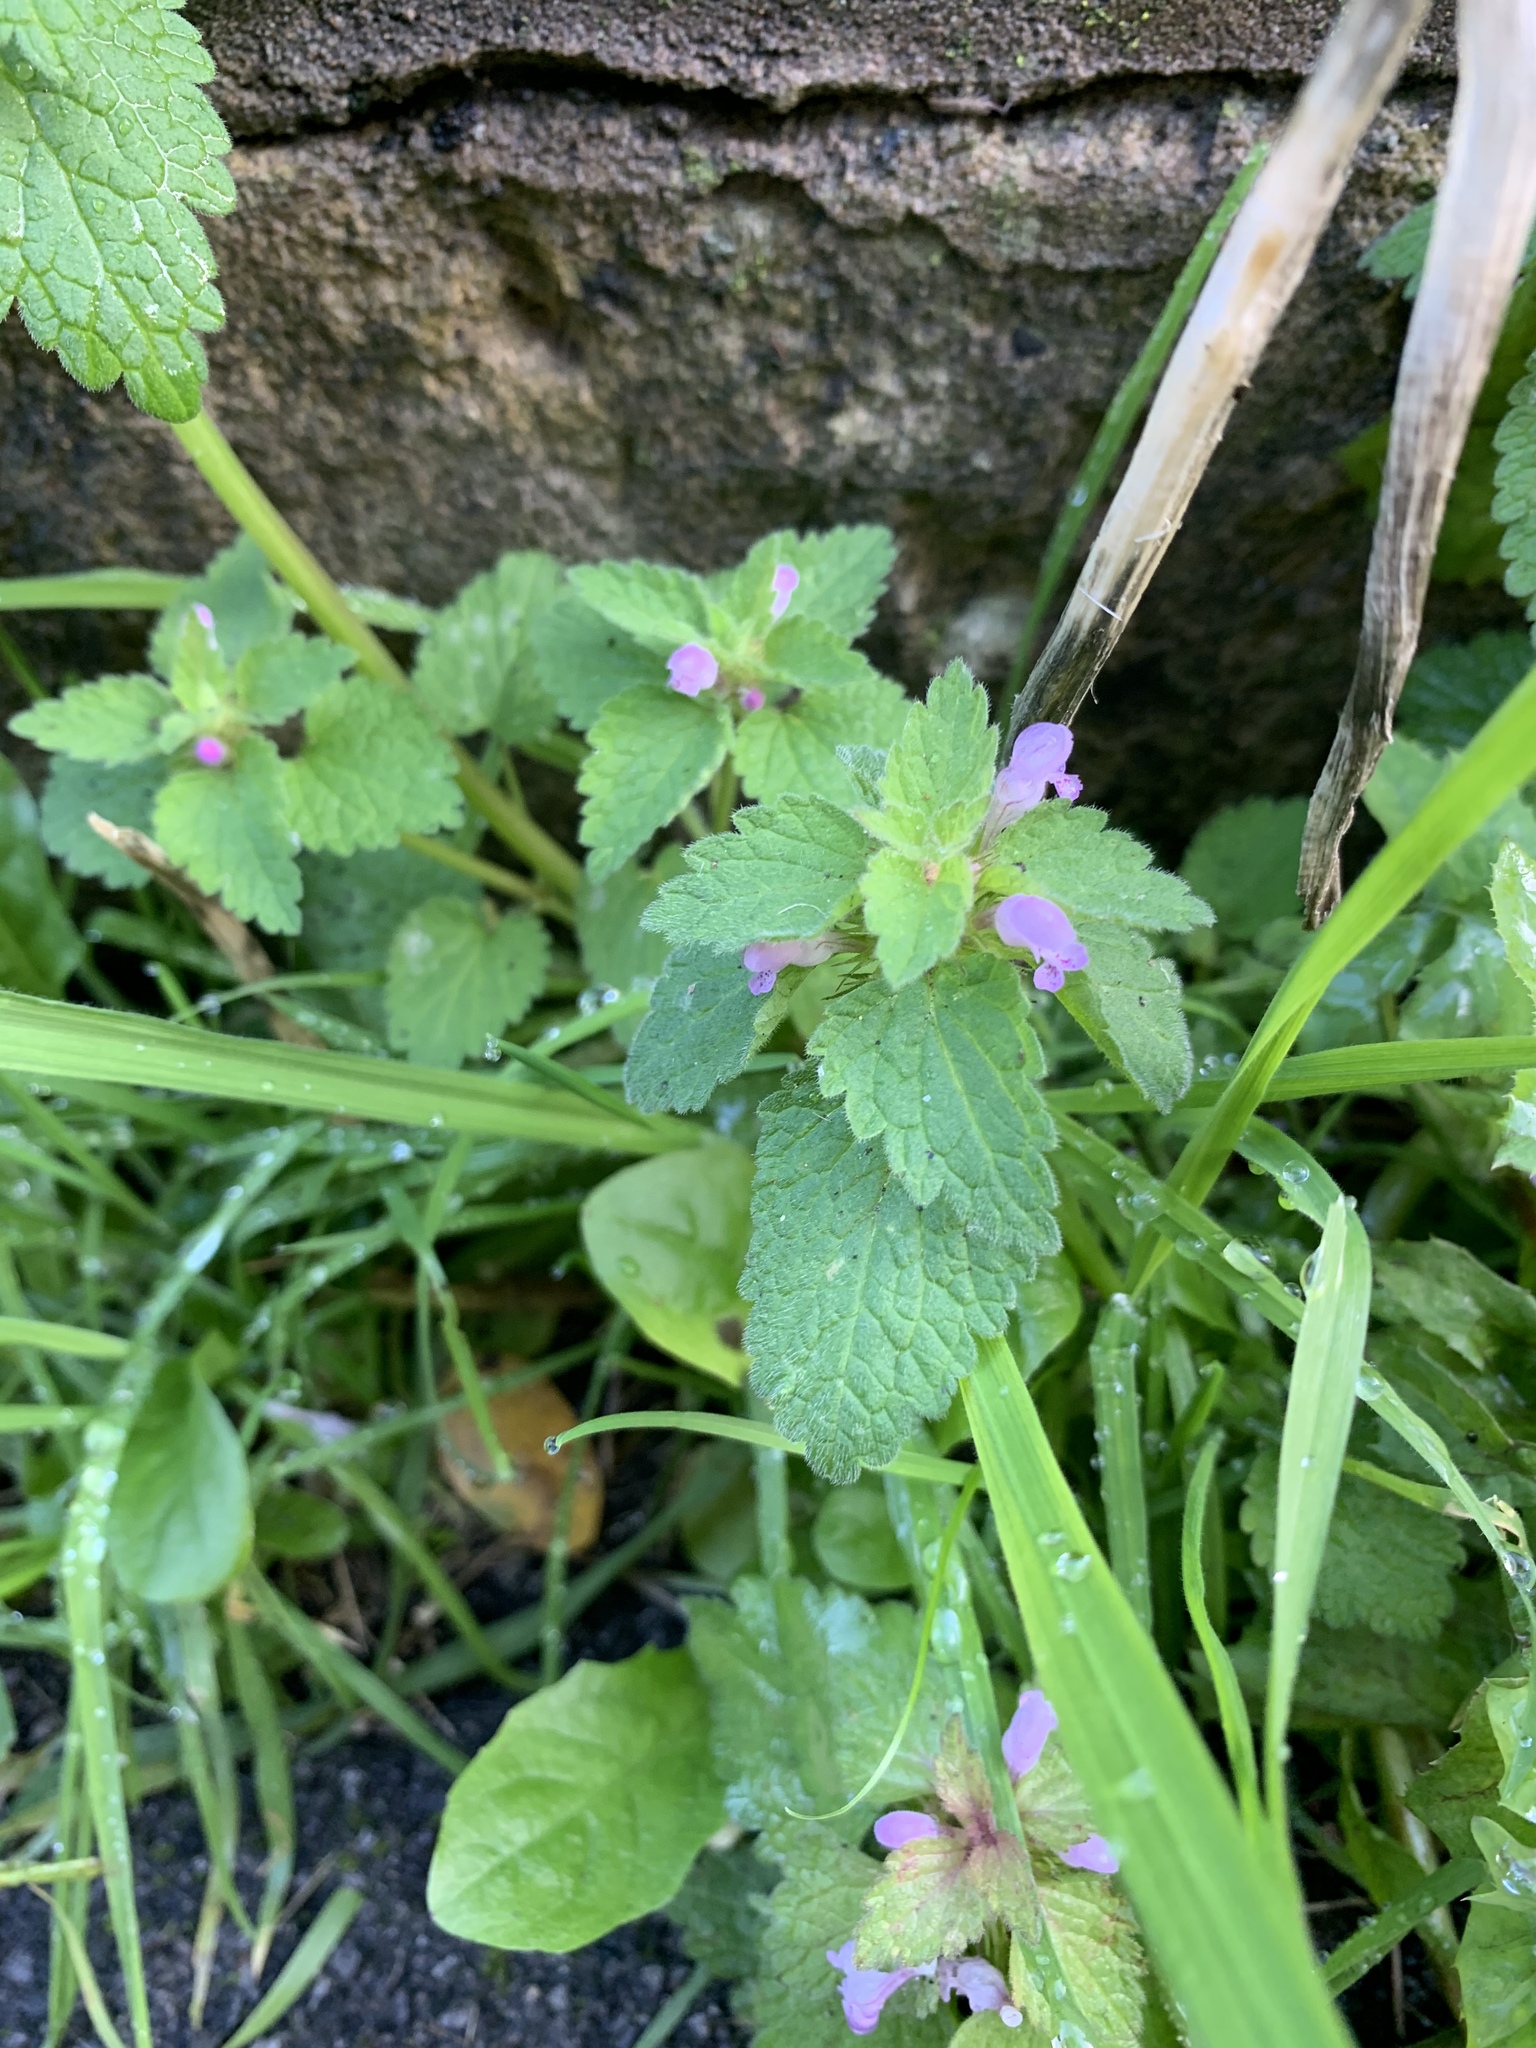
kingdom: Plantae
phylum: Tracheophyta
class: Magnoliopsida
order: Lamiales
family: Lamiaceae
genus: Lamium
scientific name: Lamium purpureum
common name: Red dead-nettle
